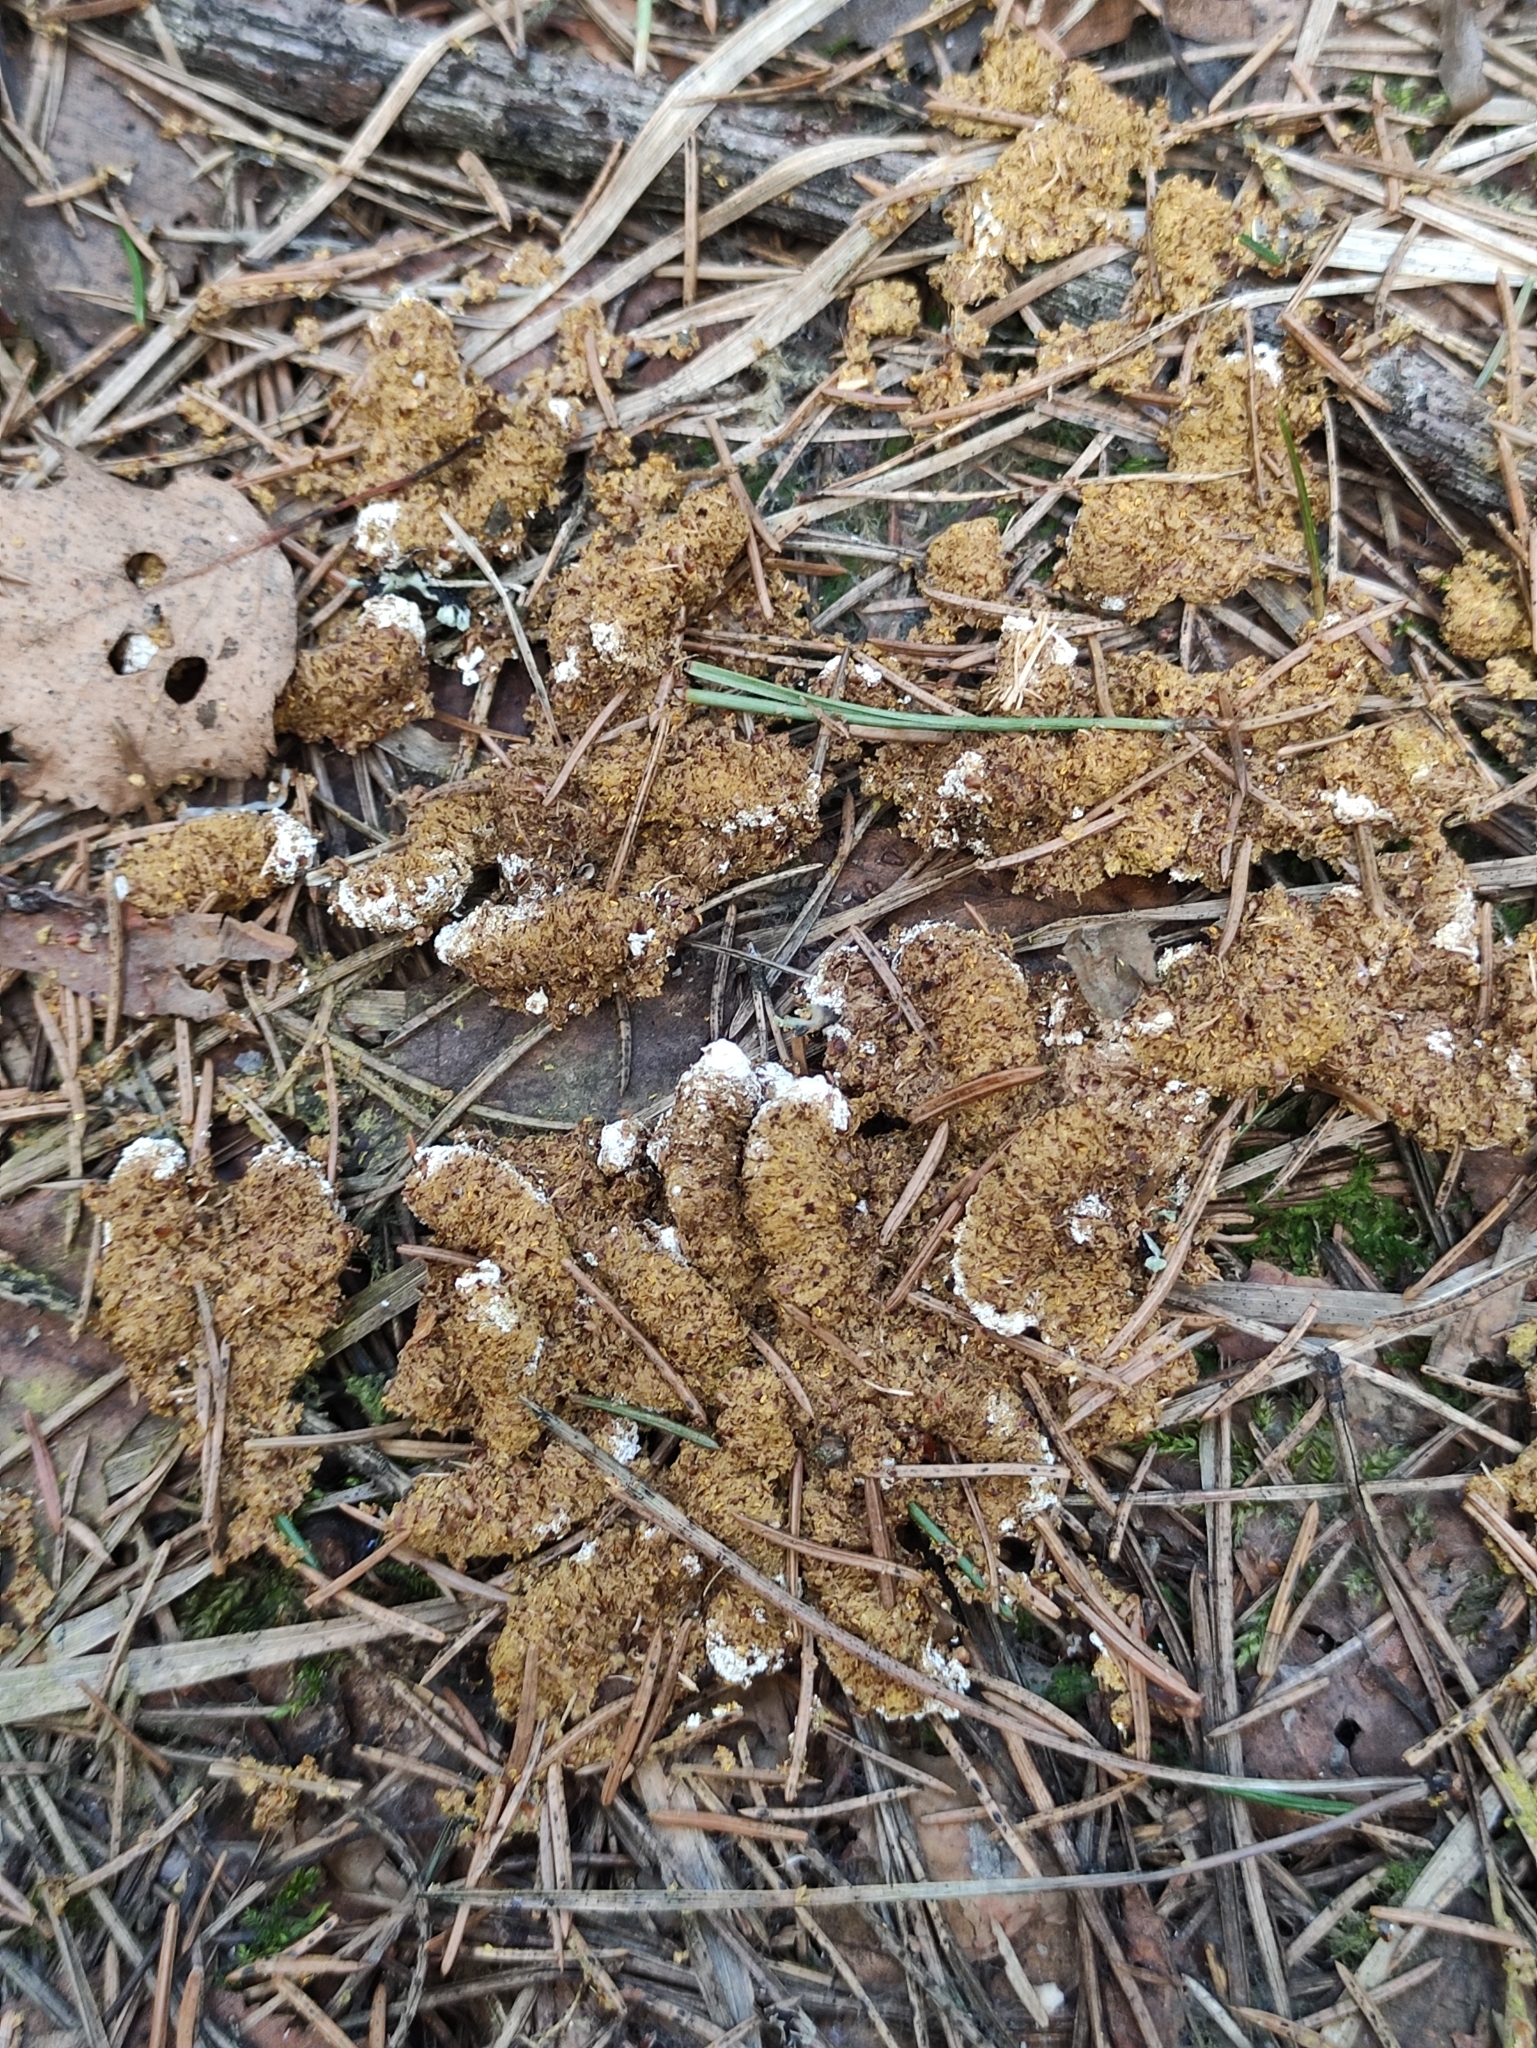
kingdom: Animalia
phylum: Chordata
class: Aves
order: Galliformes
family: Phasianidae
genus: Tetrastes
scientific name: Tetrastes bonasia
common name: Hazel grouse
